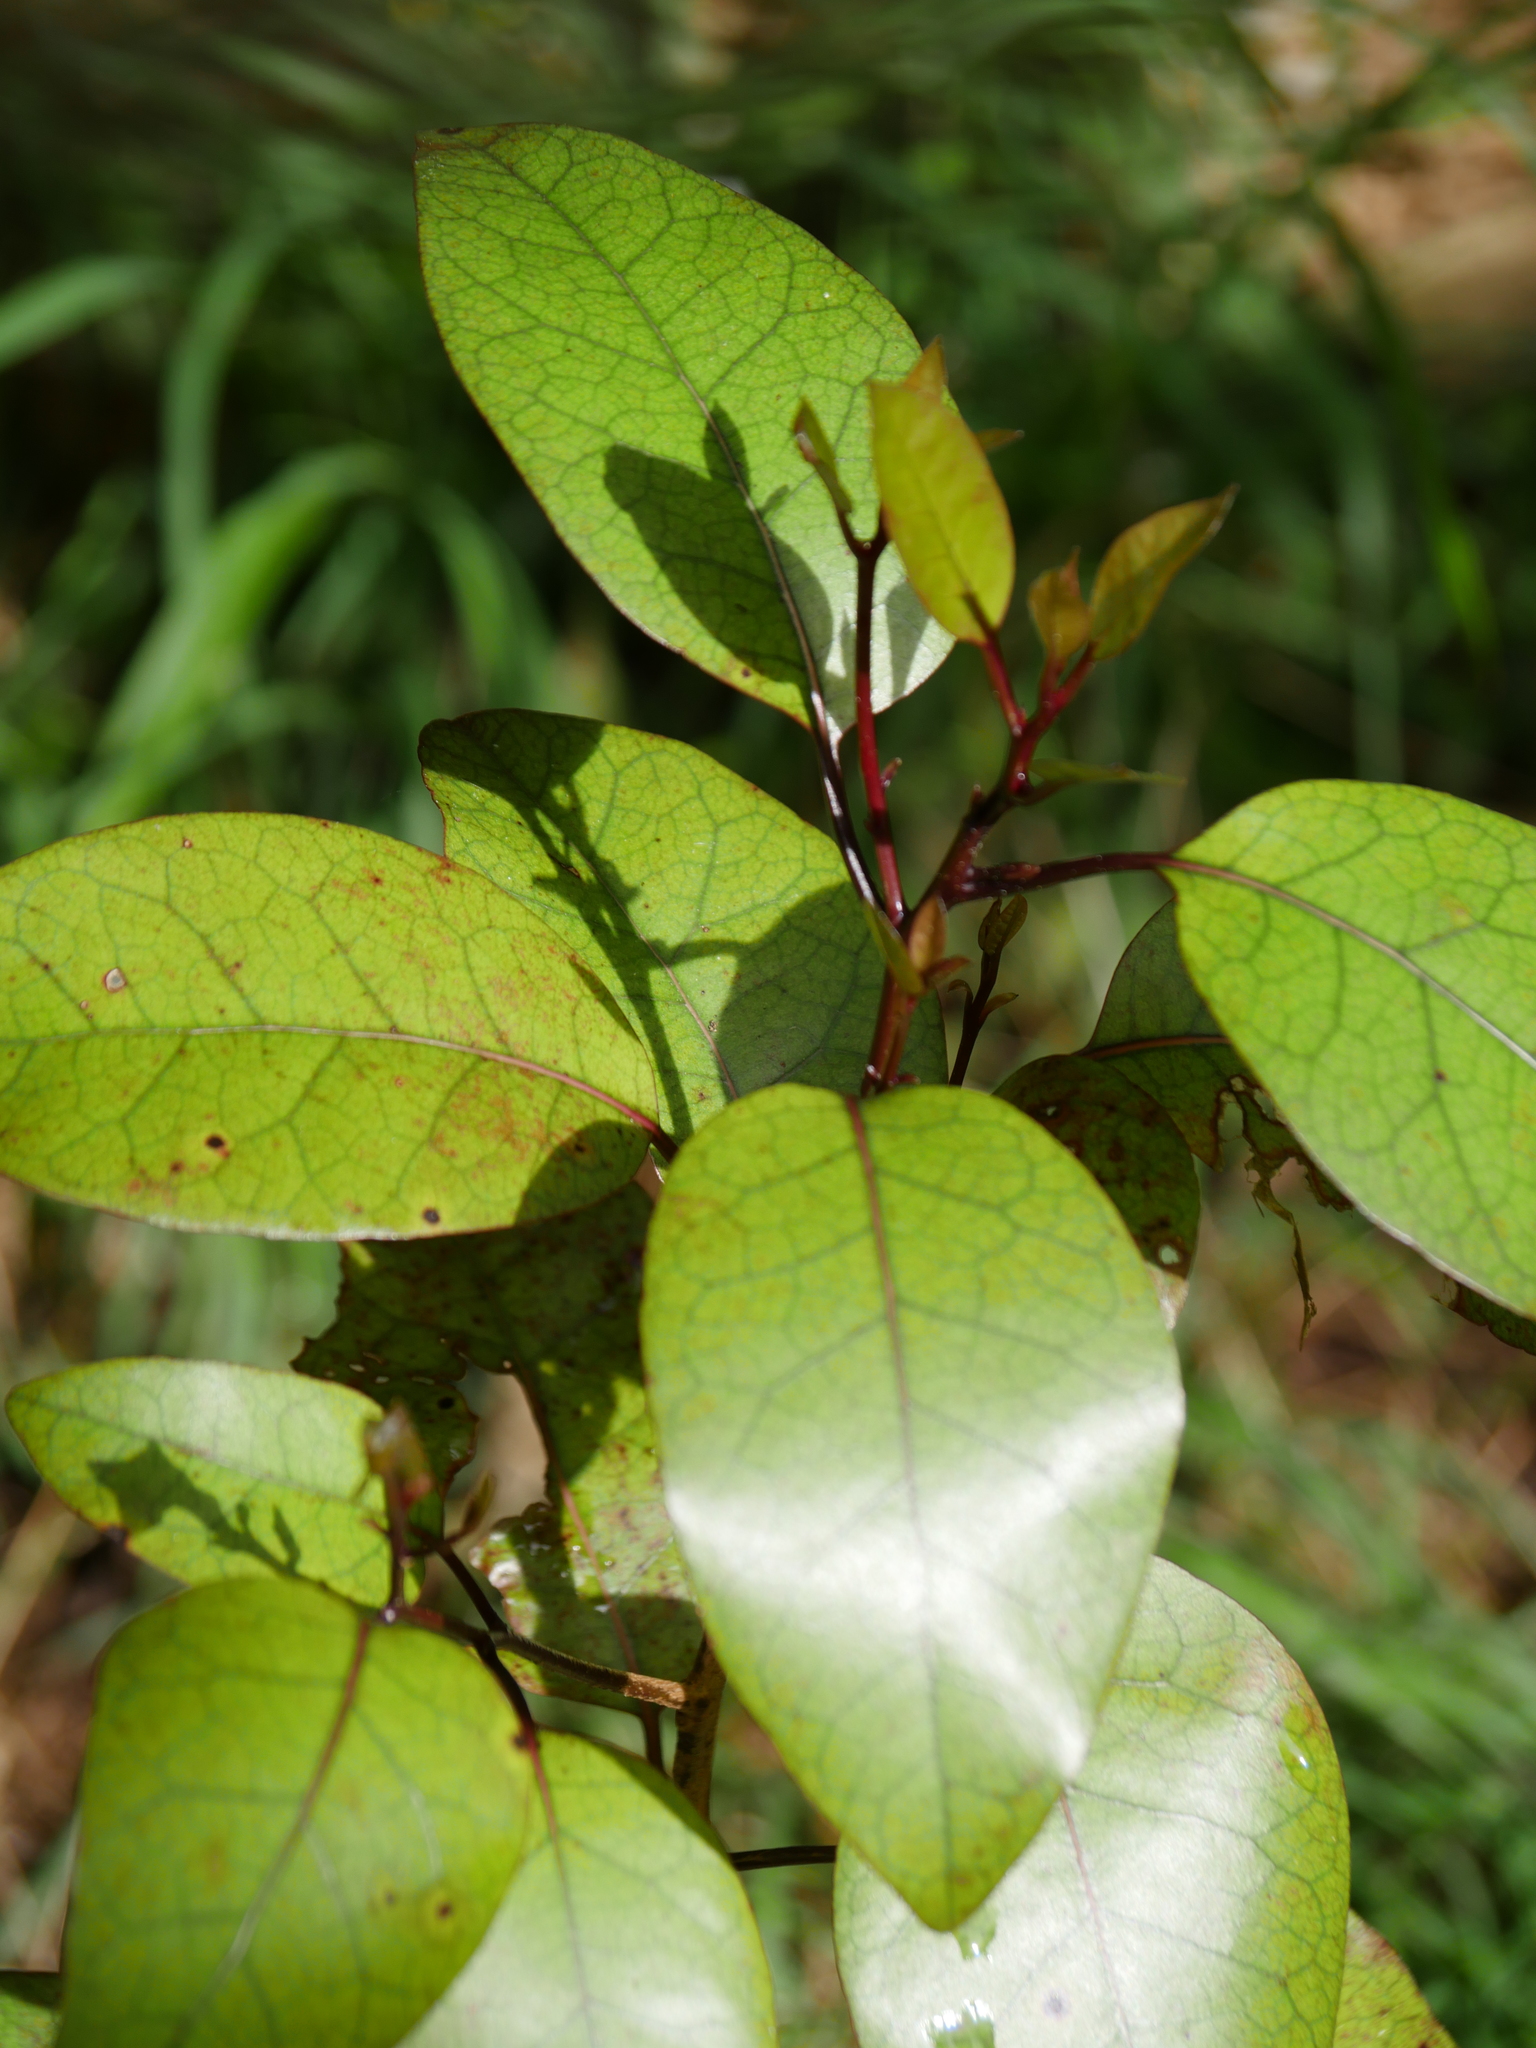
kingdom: Plantae
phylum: Tracheophyta
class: Magnoliopsida
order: Laurales
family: Lauraceae
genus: Litsea
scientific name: Litsea calicaris
